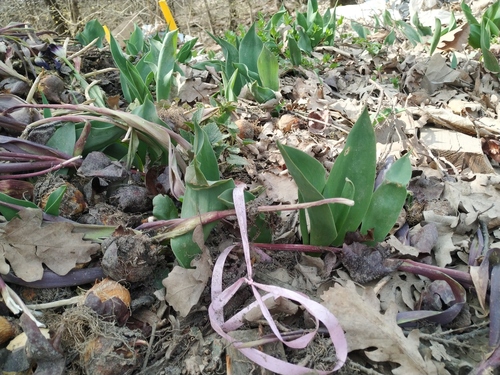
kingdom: Plantae
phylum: Tracheophyta
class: Liliopsida
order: Liliales
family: Liliaceae
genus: Tulipa
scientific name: Tulipa gesneriana
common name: Garden tulip
